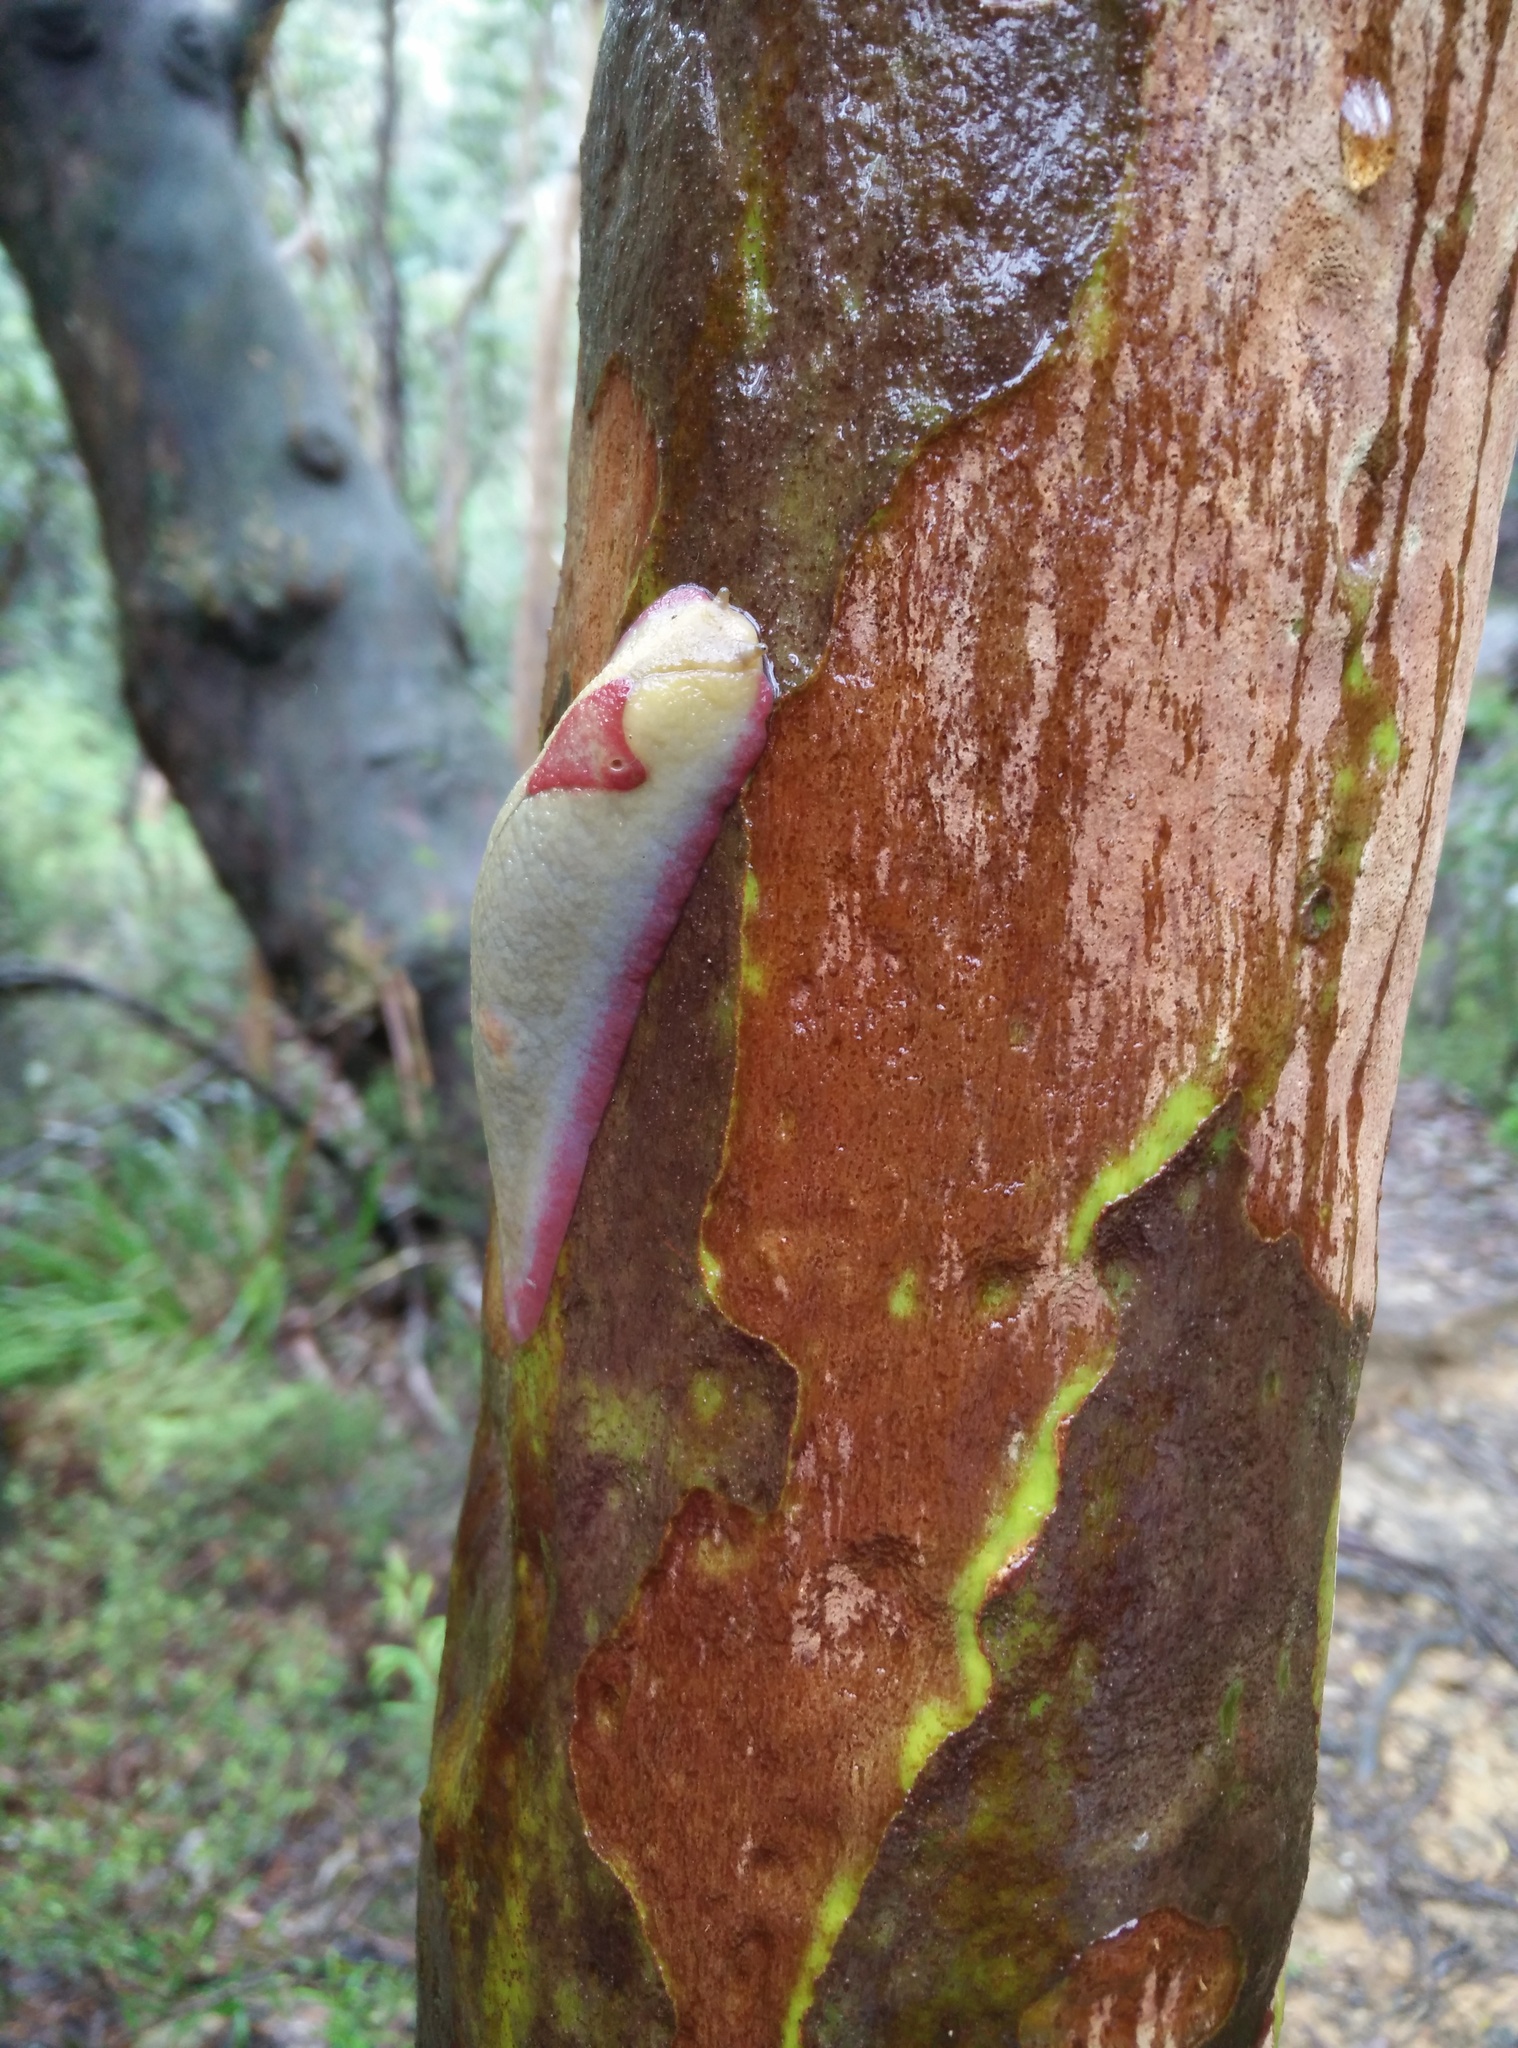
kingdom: Animalia
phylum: Mollusca
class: Gastropoda
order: Stylommatophora
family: Athoracophoridae
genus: Triboniophorus
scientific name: Triboniophorus graeffei
